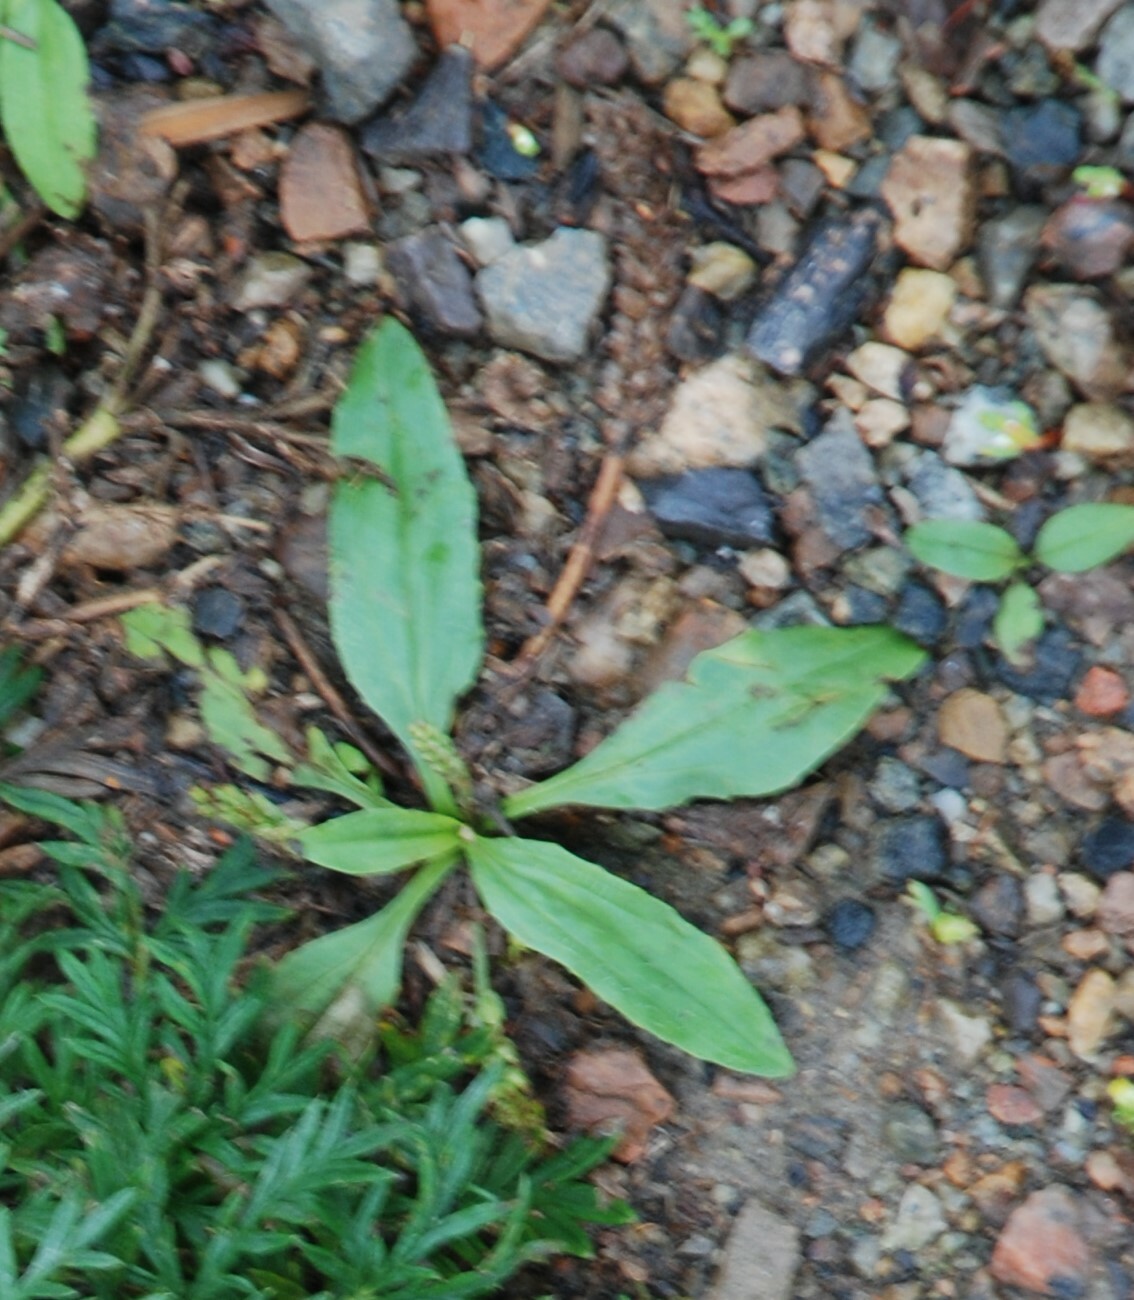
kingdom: Plantae
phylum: Tracheophyta
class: Magnoliopsida
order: Lamiales
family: Plantaginaceae
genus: Plantago
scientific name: Plantago depressa
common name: Depressed plantain
